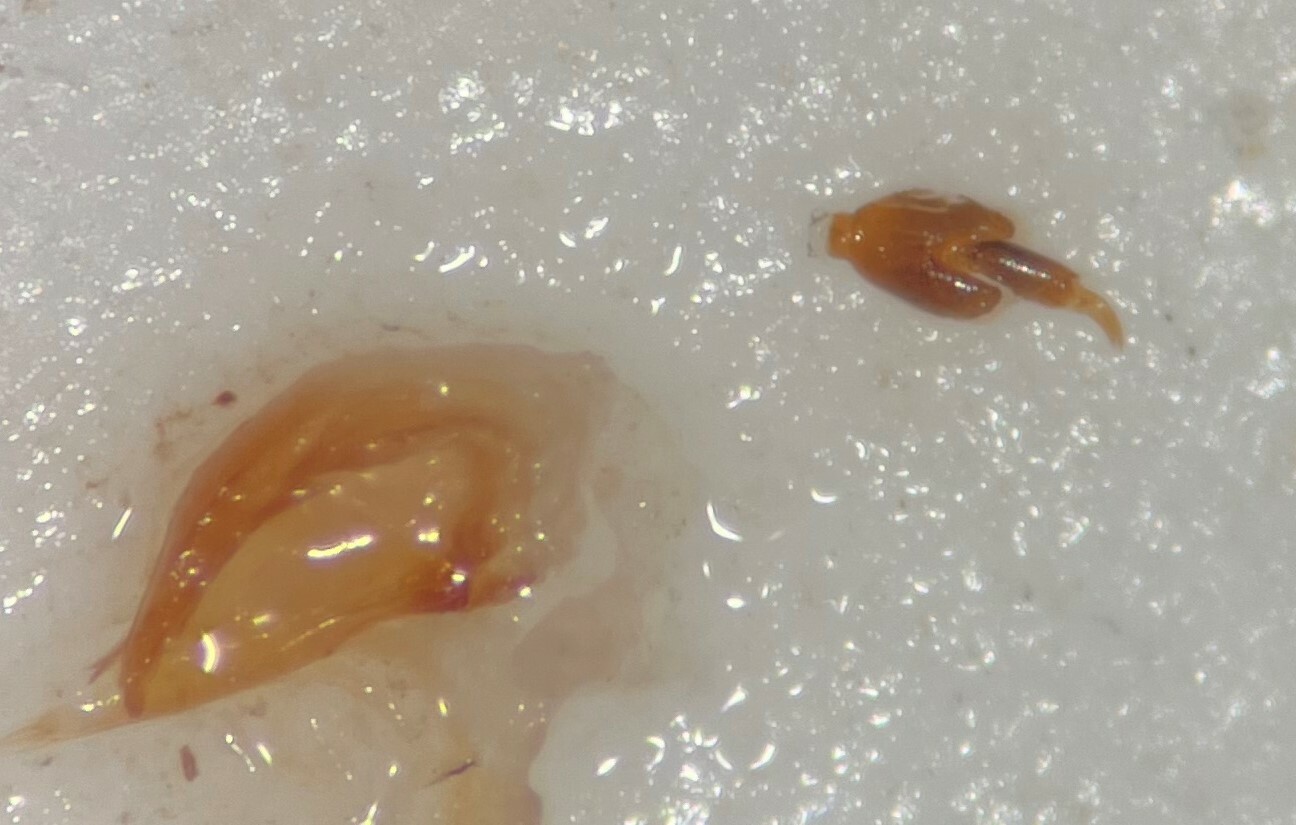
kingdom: Animalia
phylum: Arthropoda
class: Insecta
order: Coleoptera
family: Dytiscidae
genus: Hydroporus
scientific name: Hydroporus dichrous
